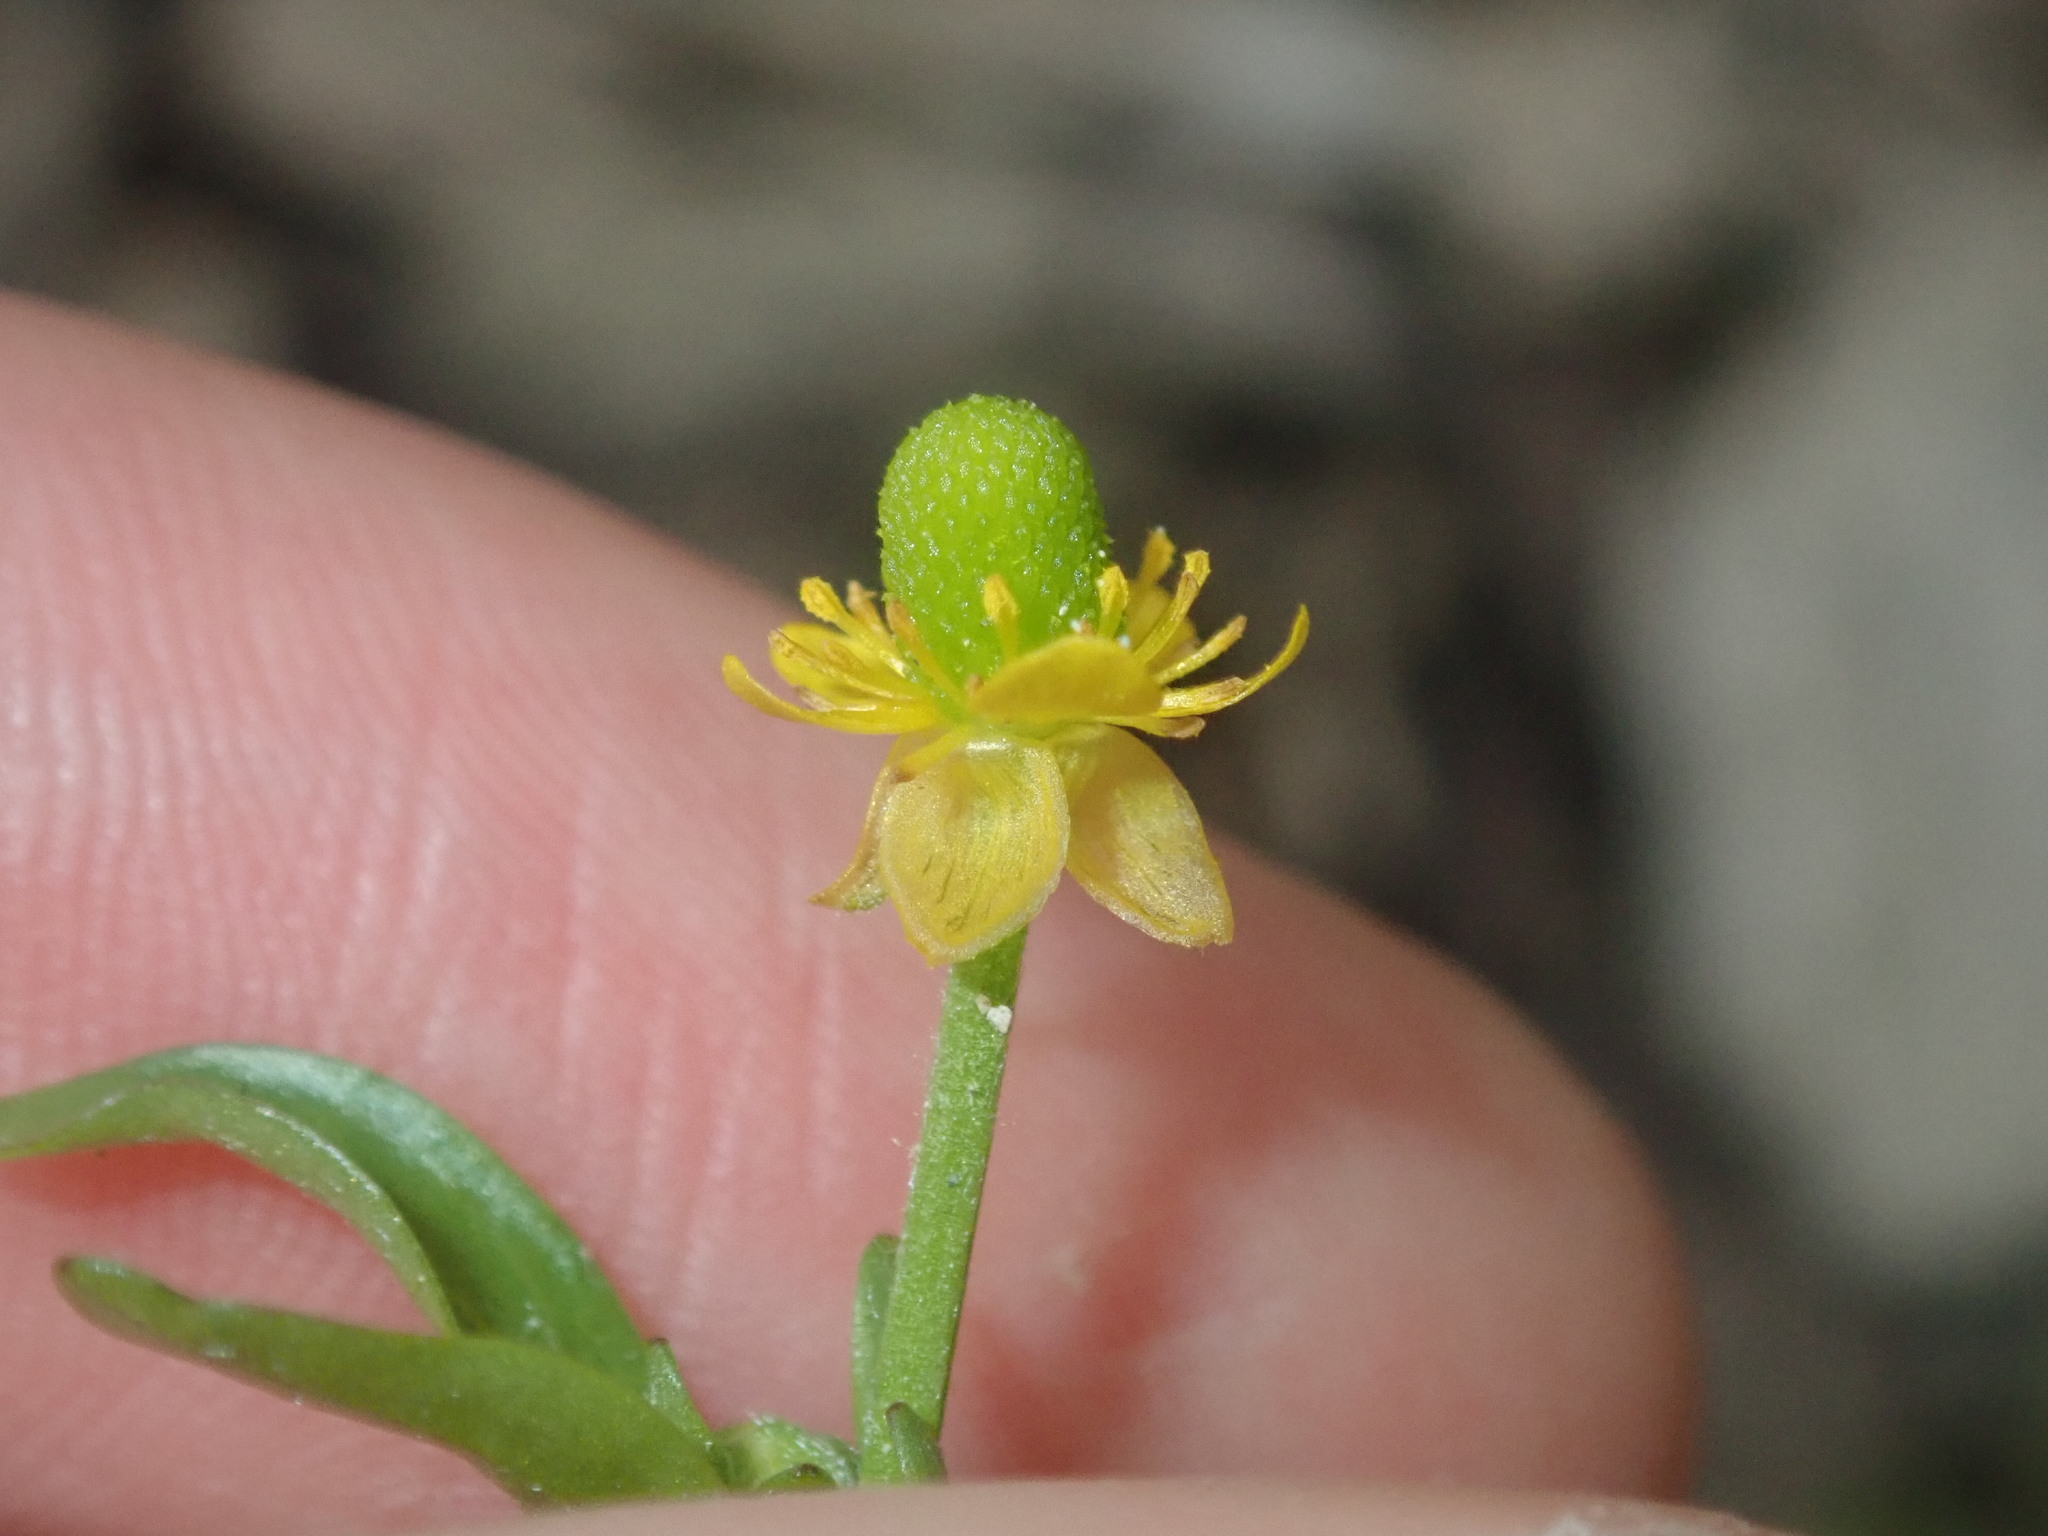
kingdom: Plantae
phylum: Tracheophyta
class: Magnoliopsida
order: Ranunculales
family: Ranunculaceae
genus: Ranunculus
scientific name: Ranunculus sceleratus
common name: Celery-leaved buttercup
